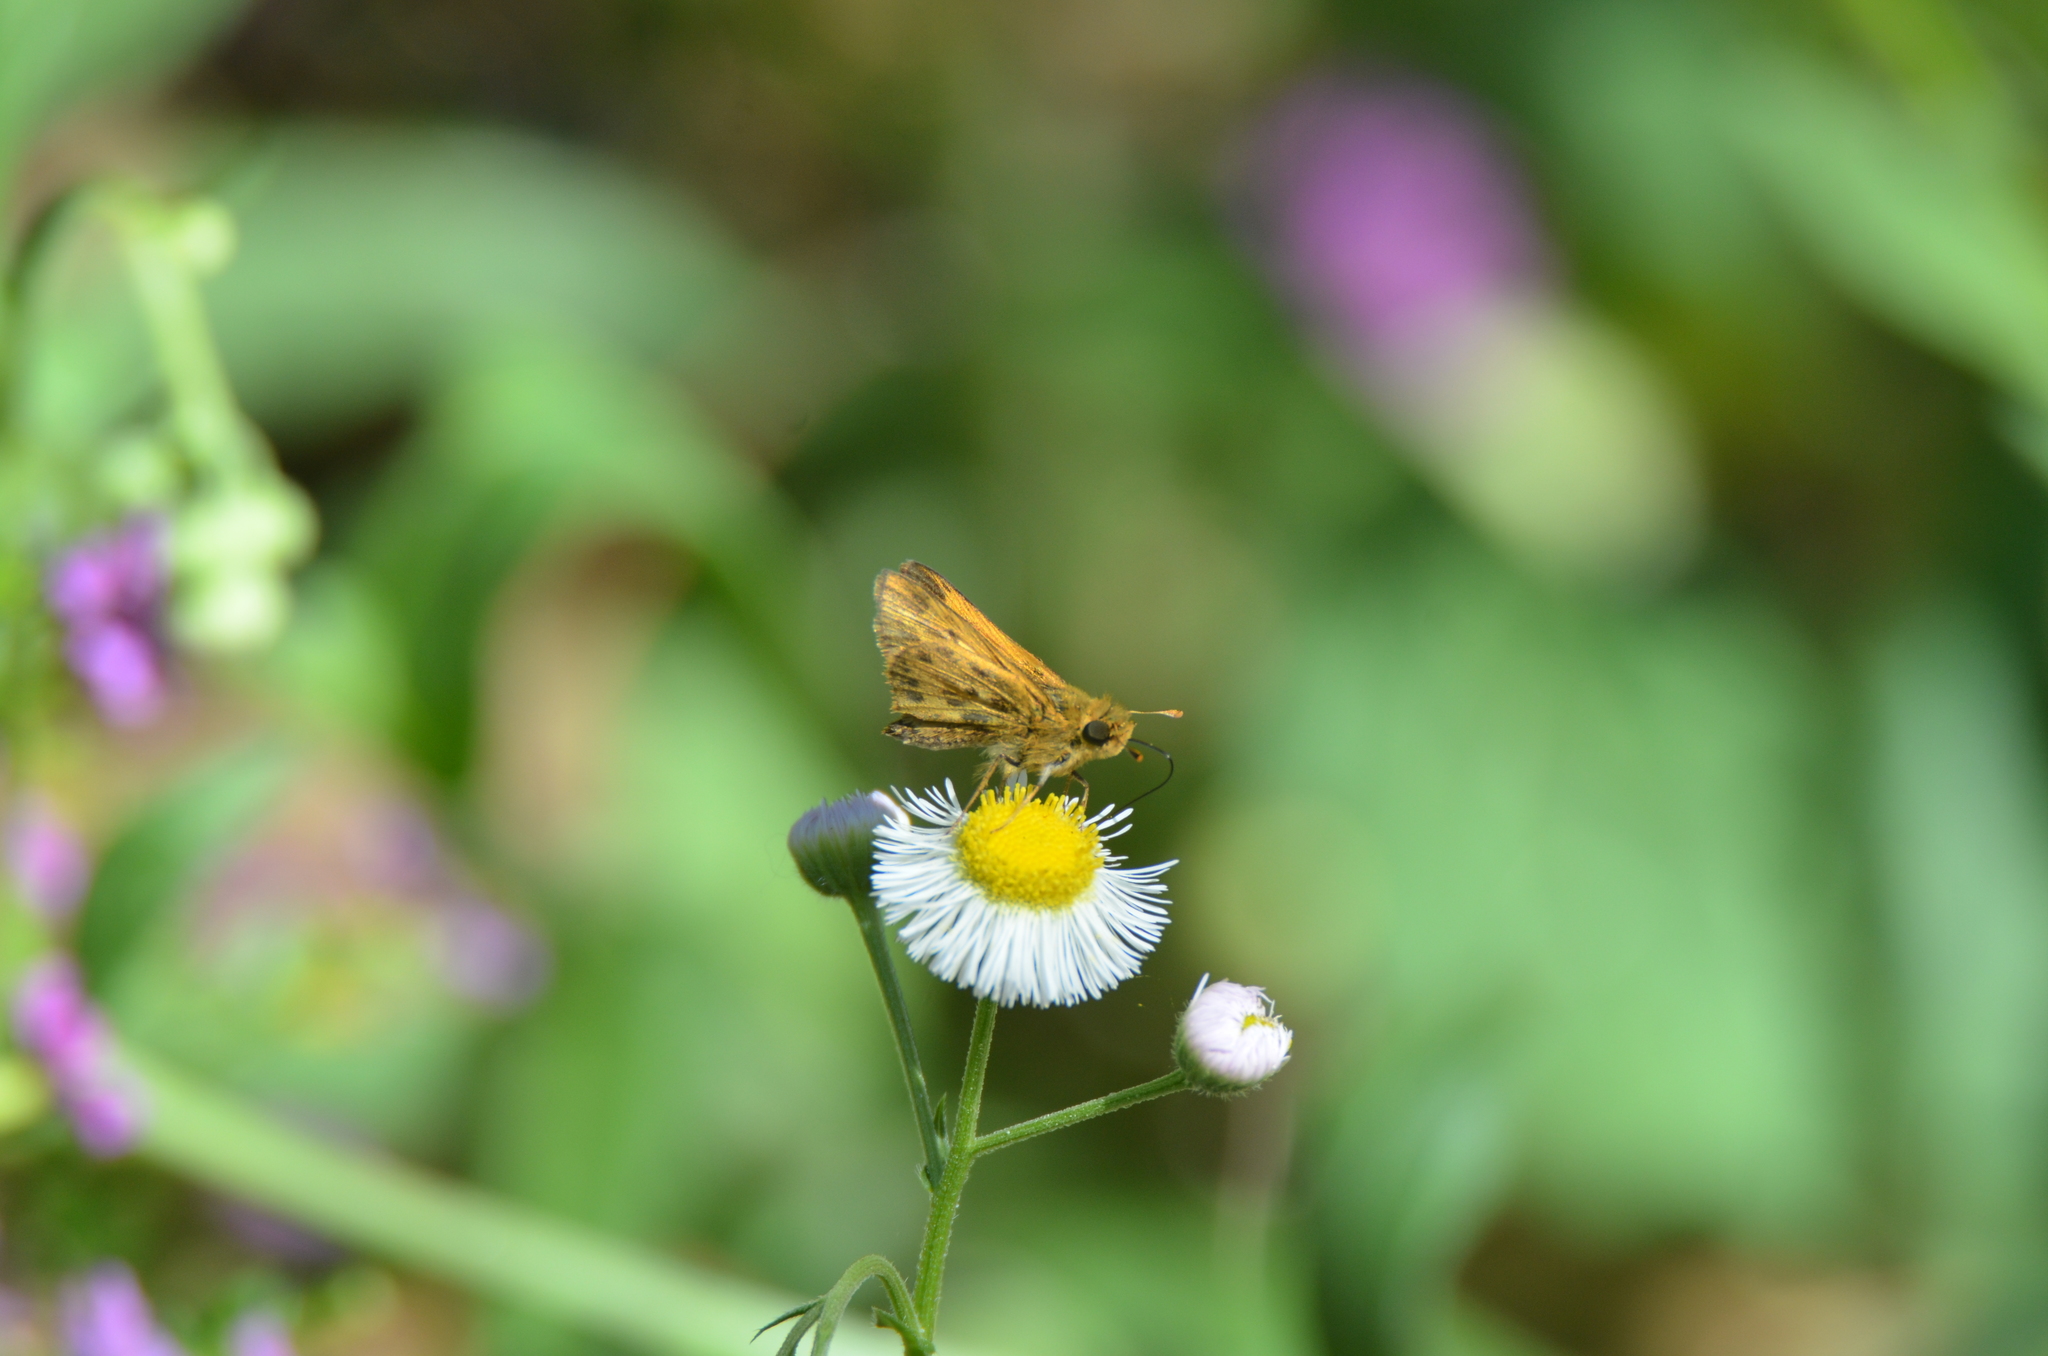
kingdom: Animalia
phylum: Arthropoda
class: Insecta
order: Lepidoptera
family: Hesperiidae
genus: Hylephila
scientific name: Hylephila phyleus
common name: Fiery skipper
